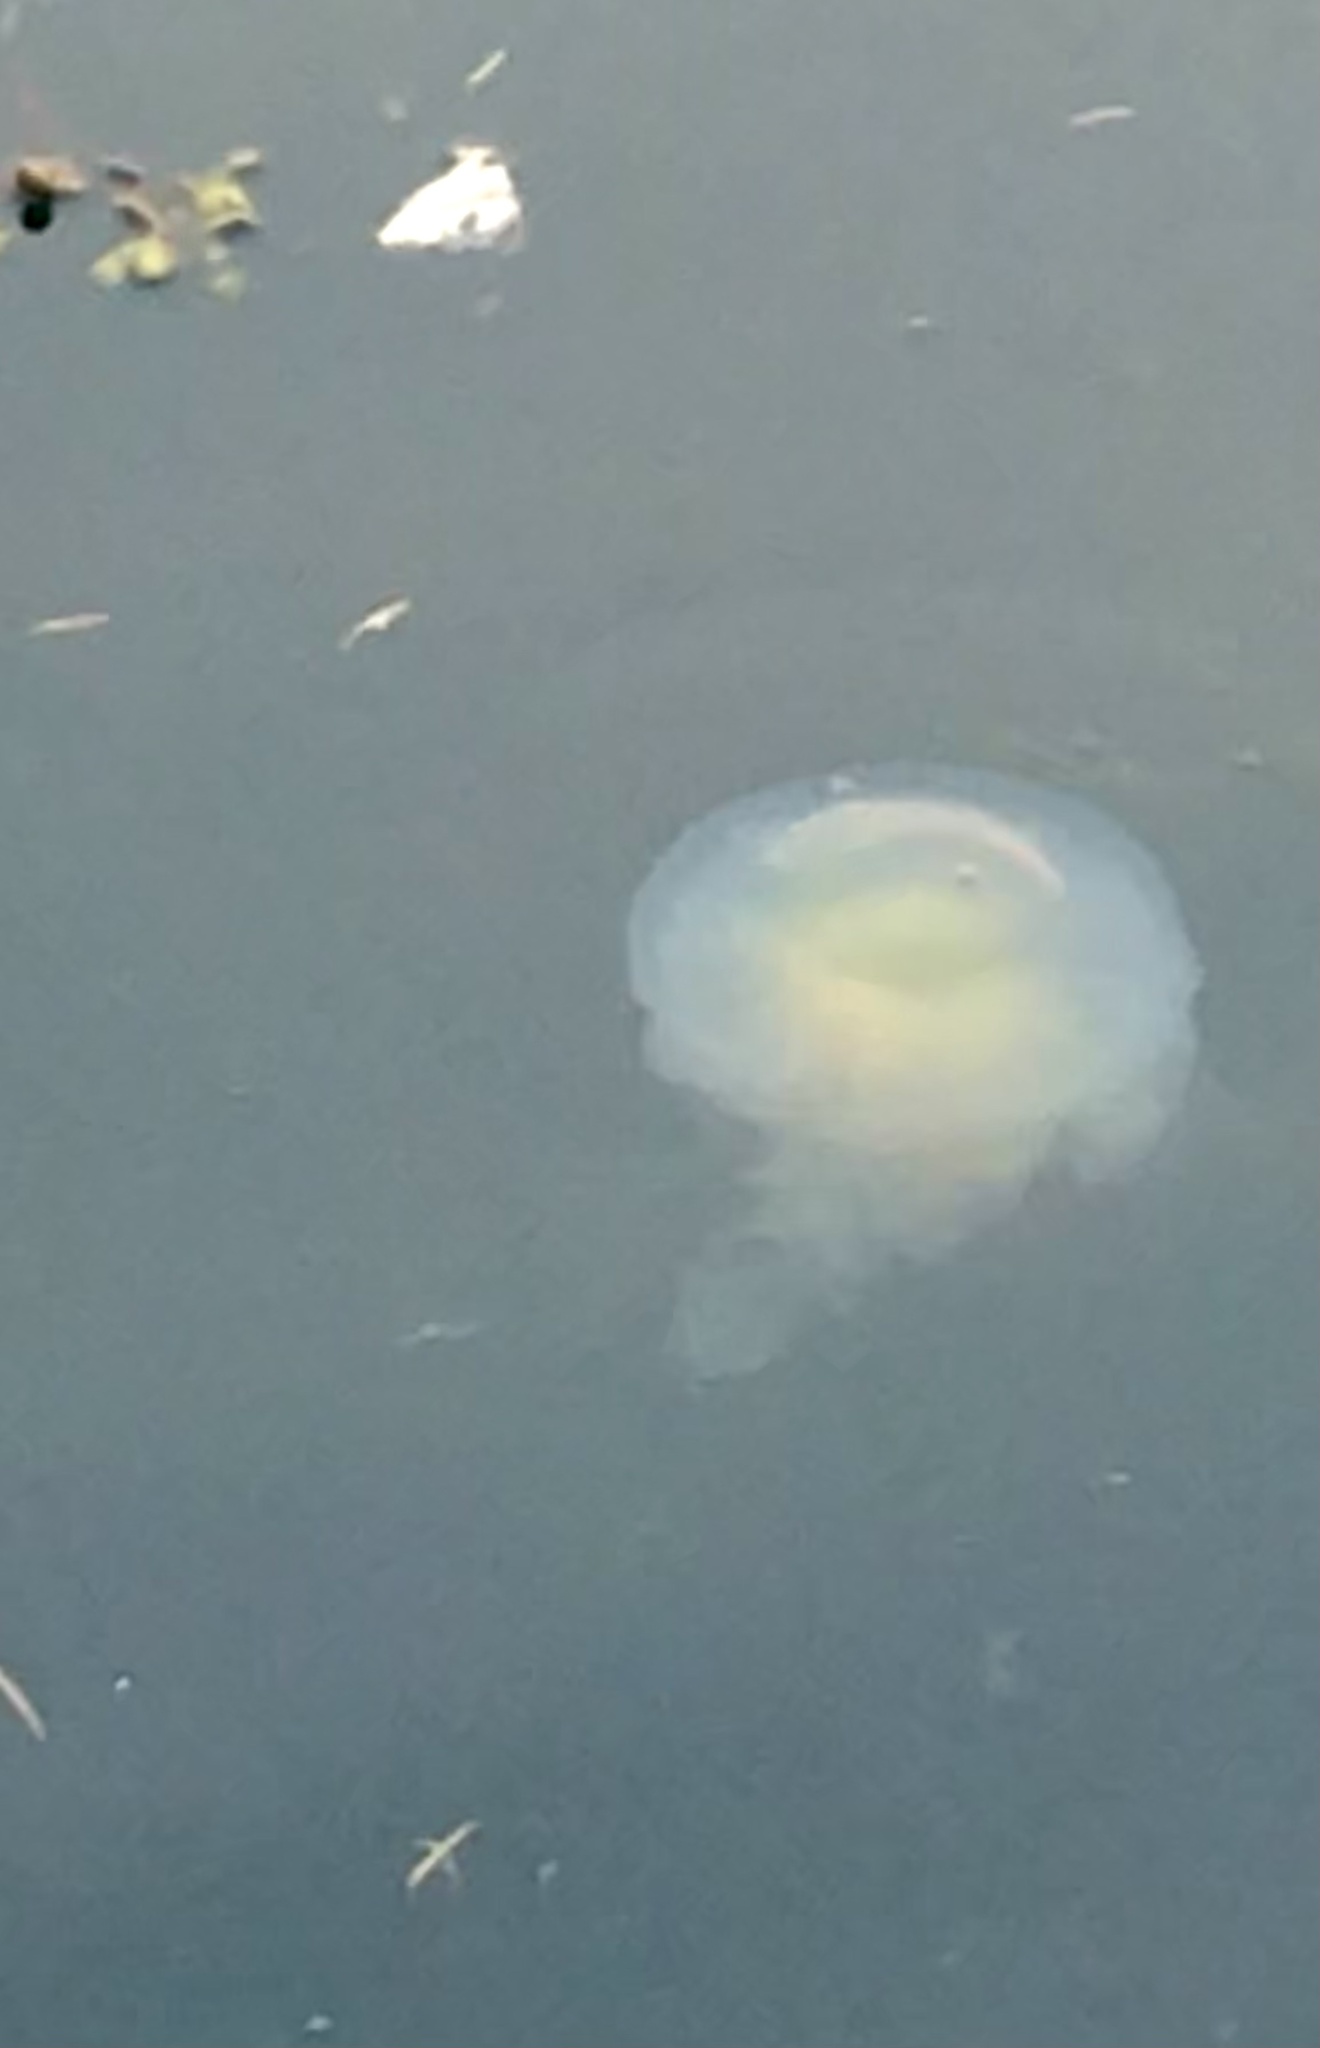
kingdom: Animalia
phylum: Cnidaria
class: Scyphozoa
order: Semaeostomeae
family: Phacellophoridae
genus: Phacellophora
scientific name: Phacellophora camtschatica
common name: Fried-egg jellyfish
